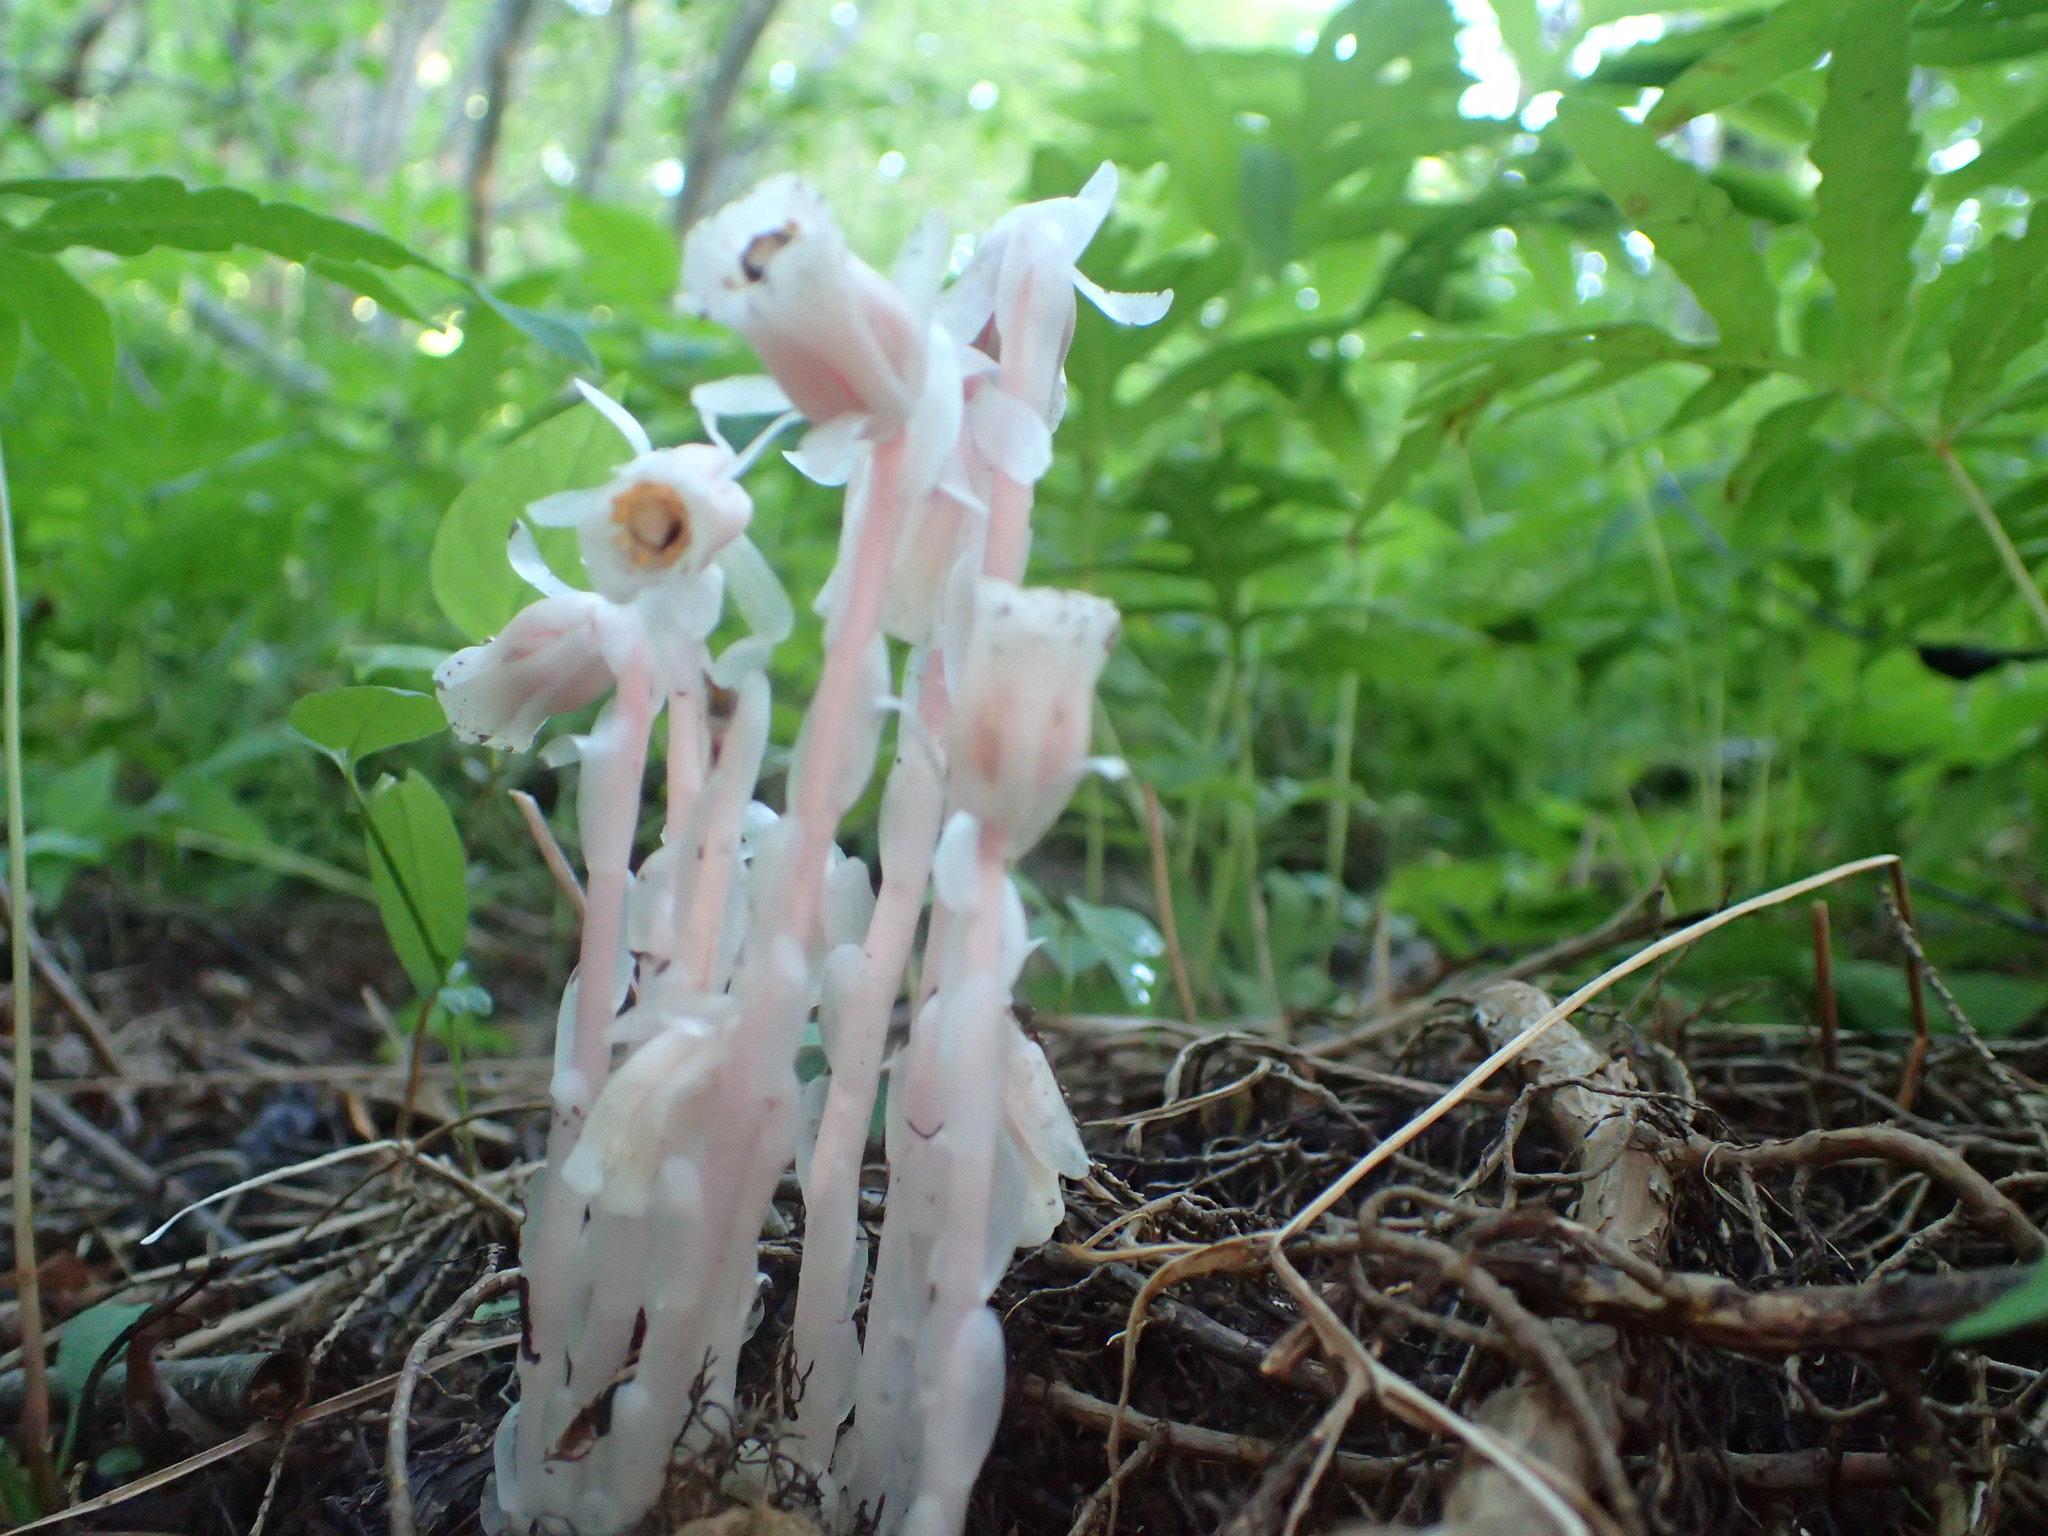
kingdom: Plantae
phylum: Tracheophyta
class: Magnoliopsida
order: Ericales
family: Ericaceae
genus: Monotropa
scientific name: Monotropa uniflora
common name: Convulsion root
